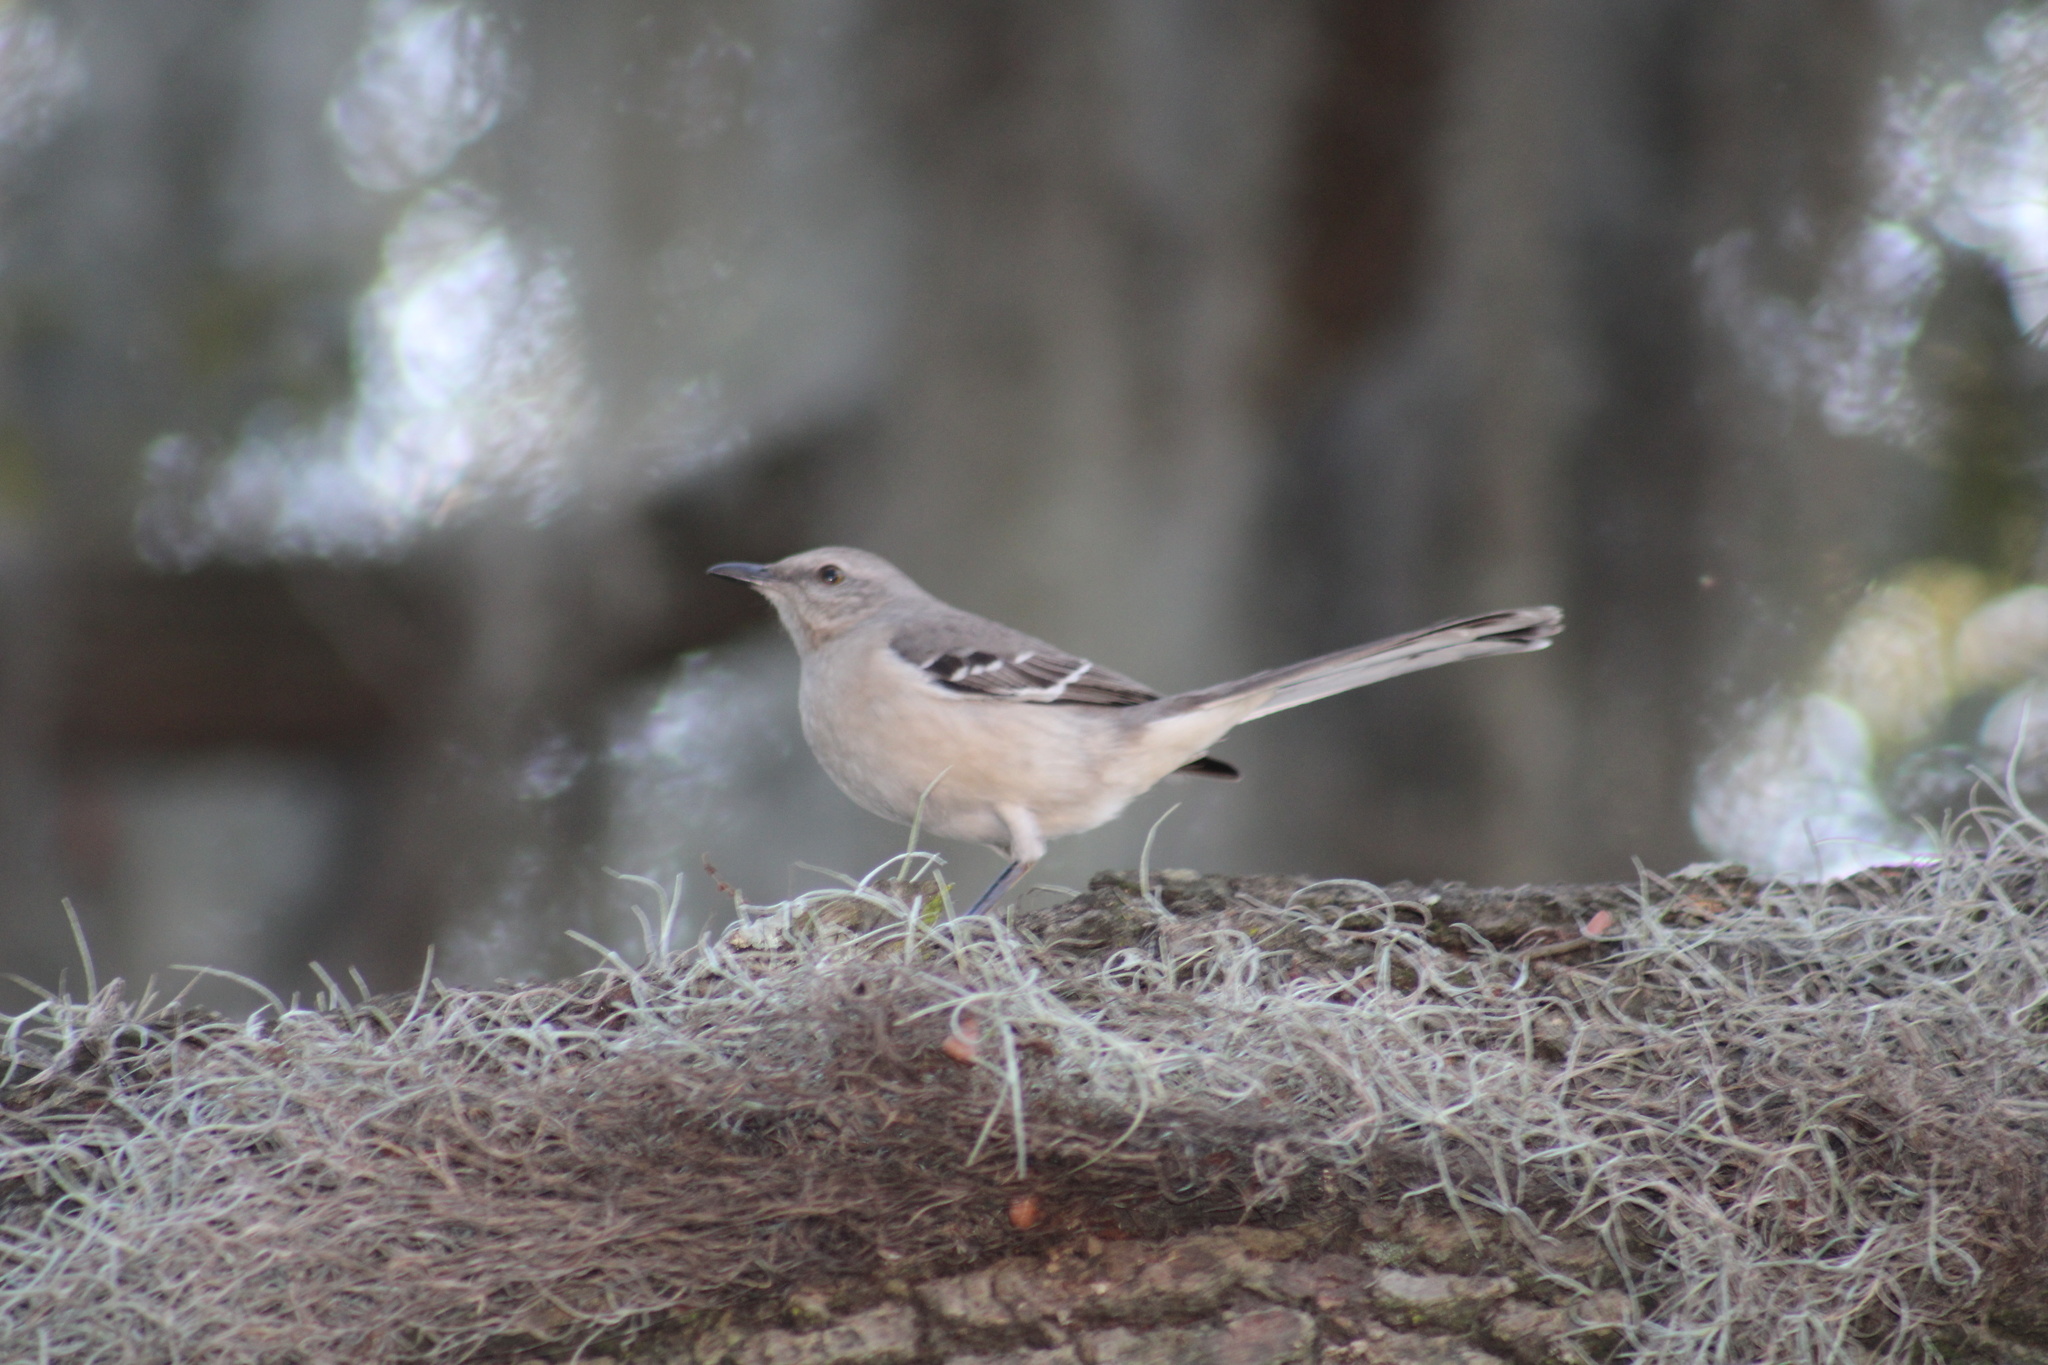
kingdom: Animalia
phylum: Chordata
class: Aves
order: Passeriformes
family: Mimidae
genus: Mimus
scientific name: Mimus polyglottos
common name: Northern mockingbird
